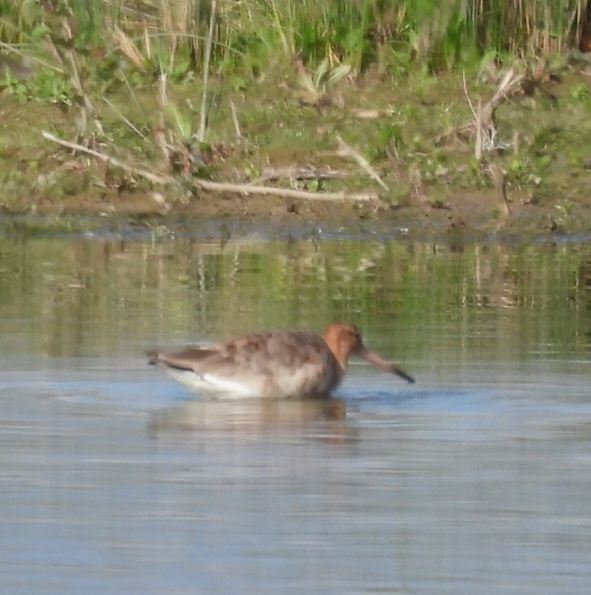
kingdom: Animalia
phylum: Chordata
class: Aves
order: Charadriiformes
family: Scolopacidae
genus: Limosa
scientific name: Limosa limosa
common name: Black-tailed godwit
